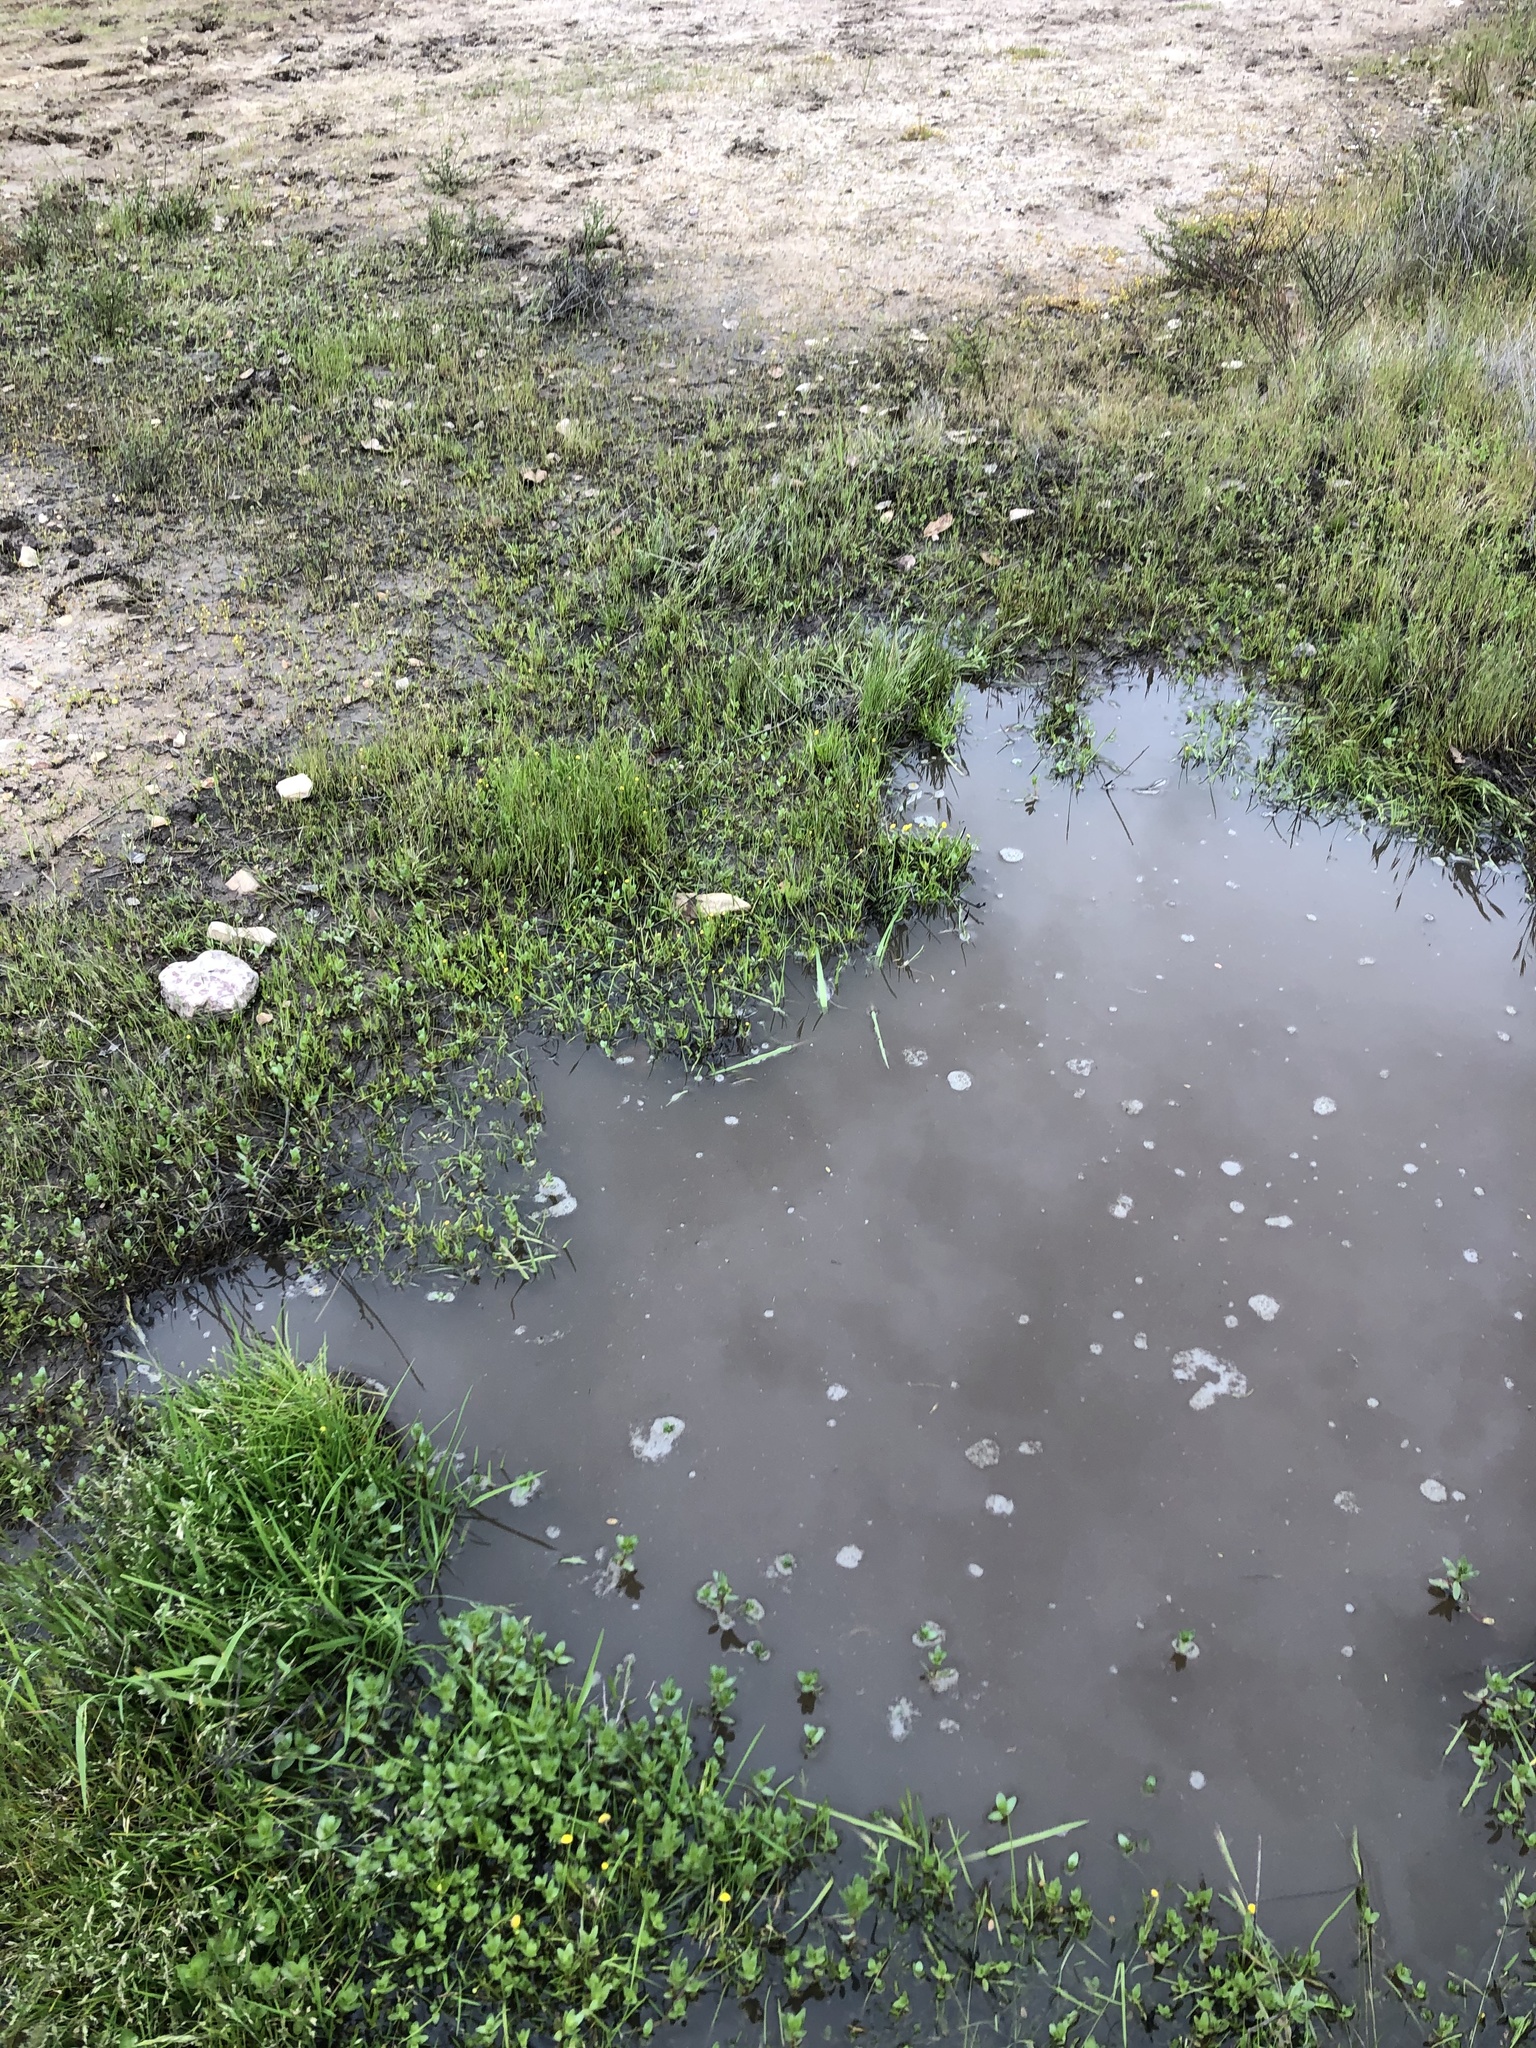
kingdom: Plantae
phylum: Tracheophyta
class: Magnoliopsida
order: Asterales
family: Asteraceae
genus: Cotula
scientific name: Cotula coronopifolia
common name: Buttonweed
